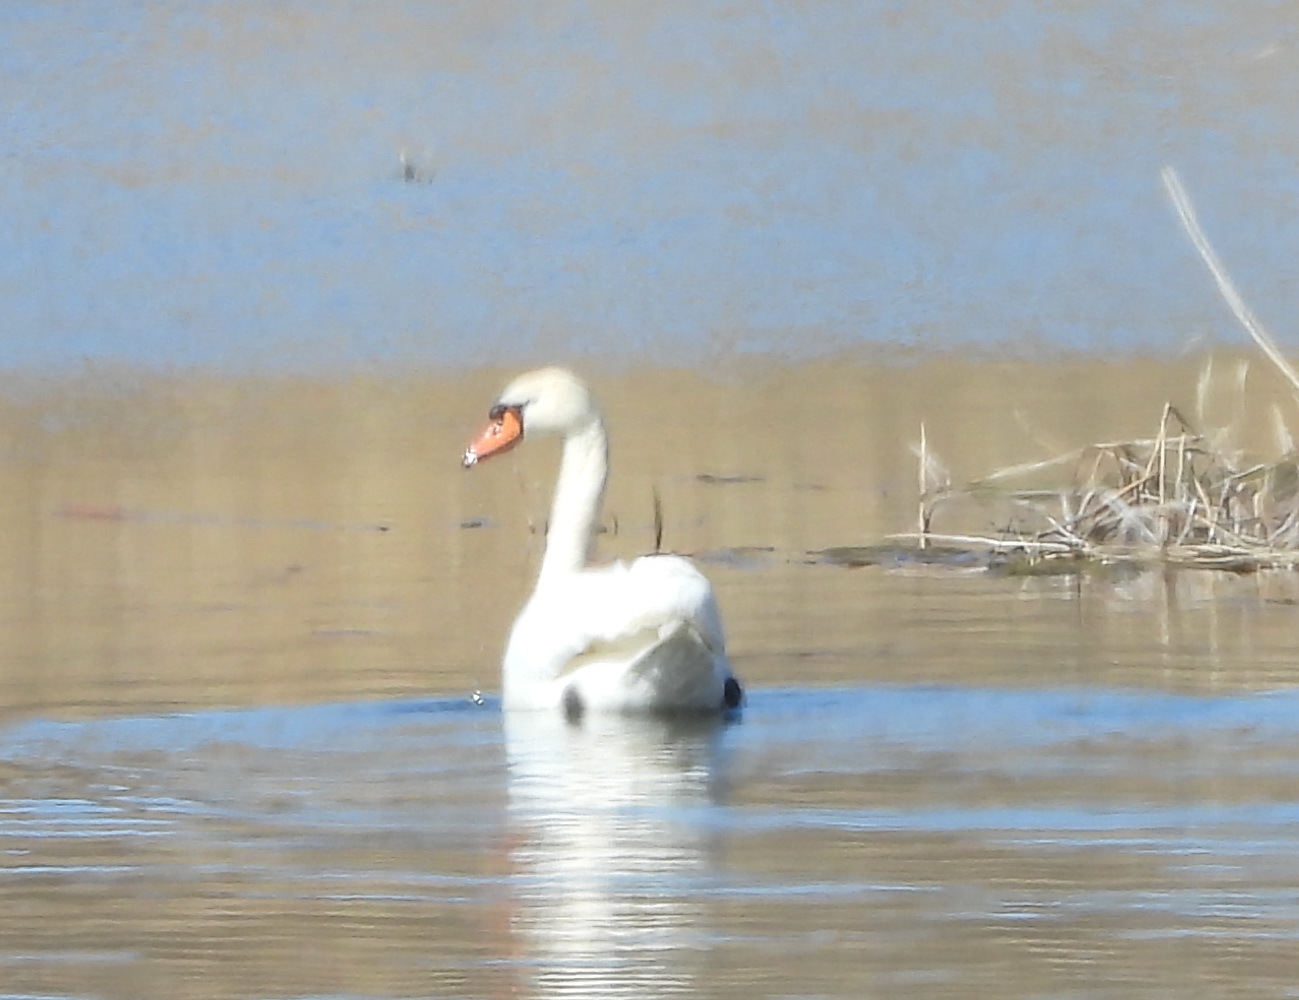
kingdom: Animalia
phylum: Chordata
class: Aves
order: Anseriformes
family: Anatidae
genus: Cygnus
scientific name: Cygnus olor
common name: Mute swan
